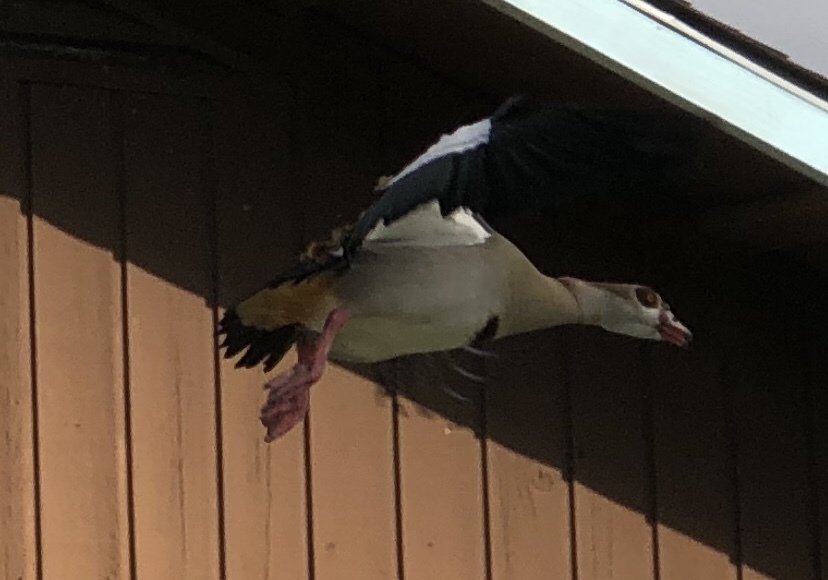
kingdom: Animalia
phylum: Chordata
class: Aves
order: Anseriformes
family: Anatidae
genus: Alopochen
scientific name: Alopochen aegyptiaca
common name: Egyptian goose
